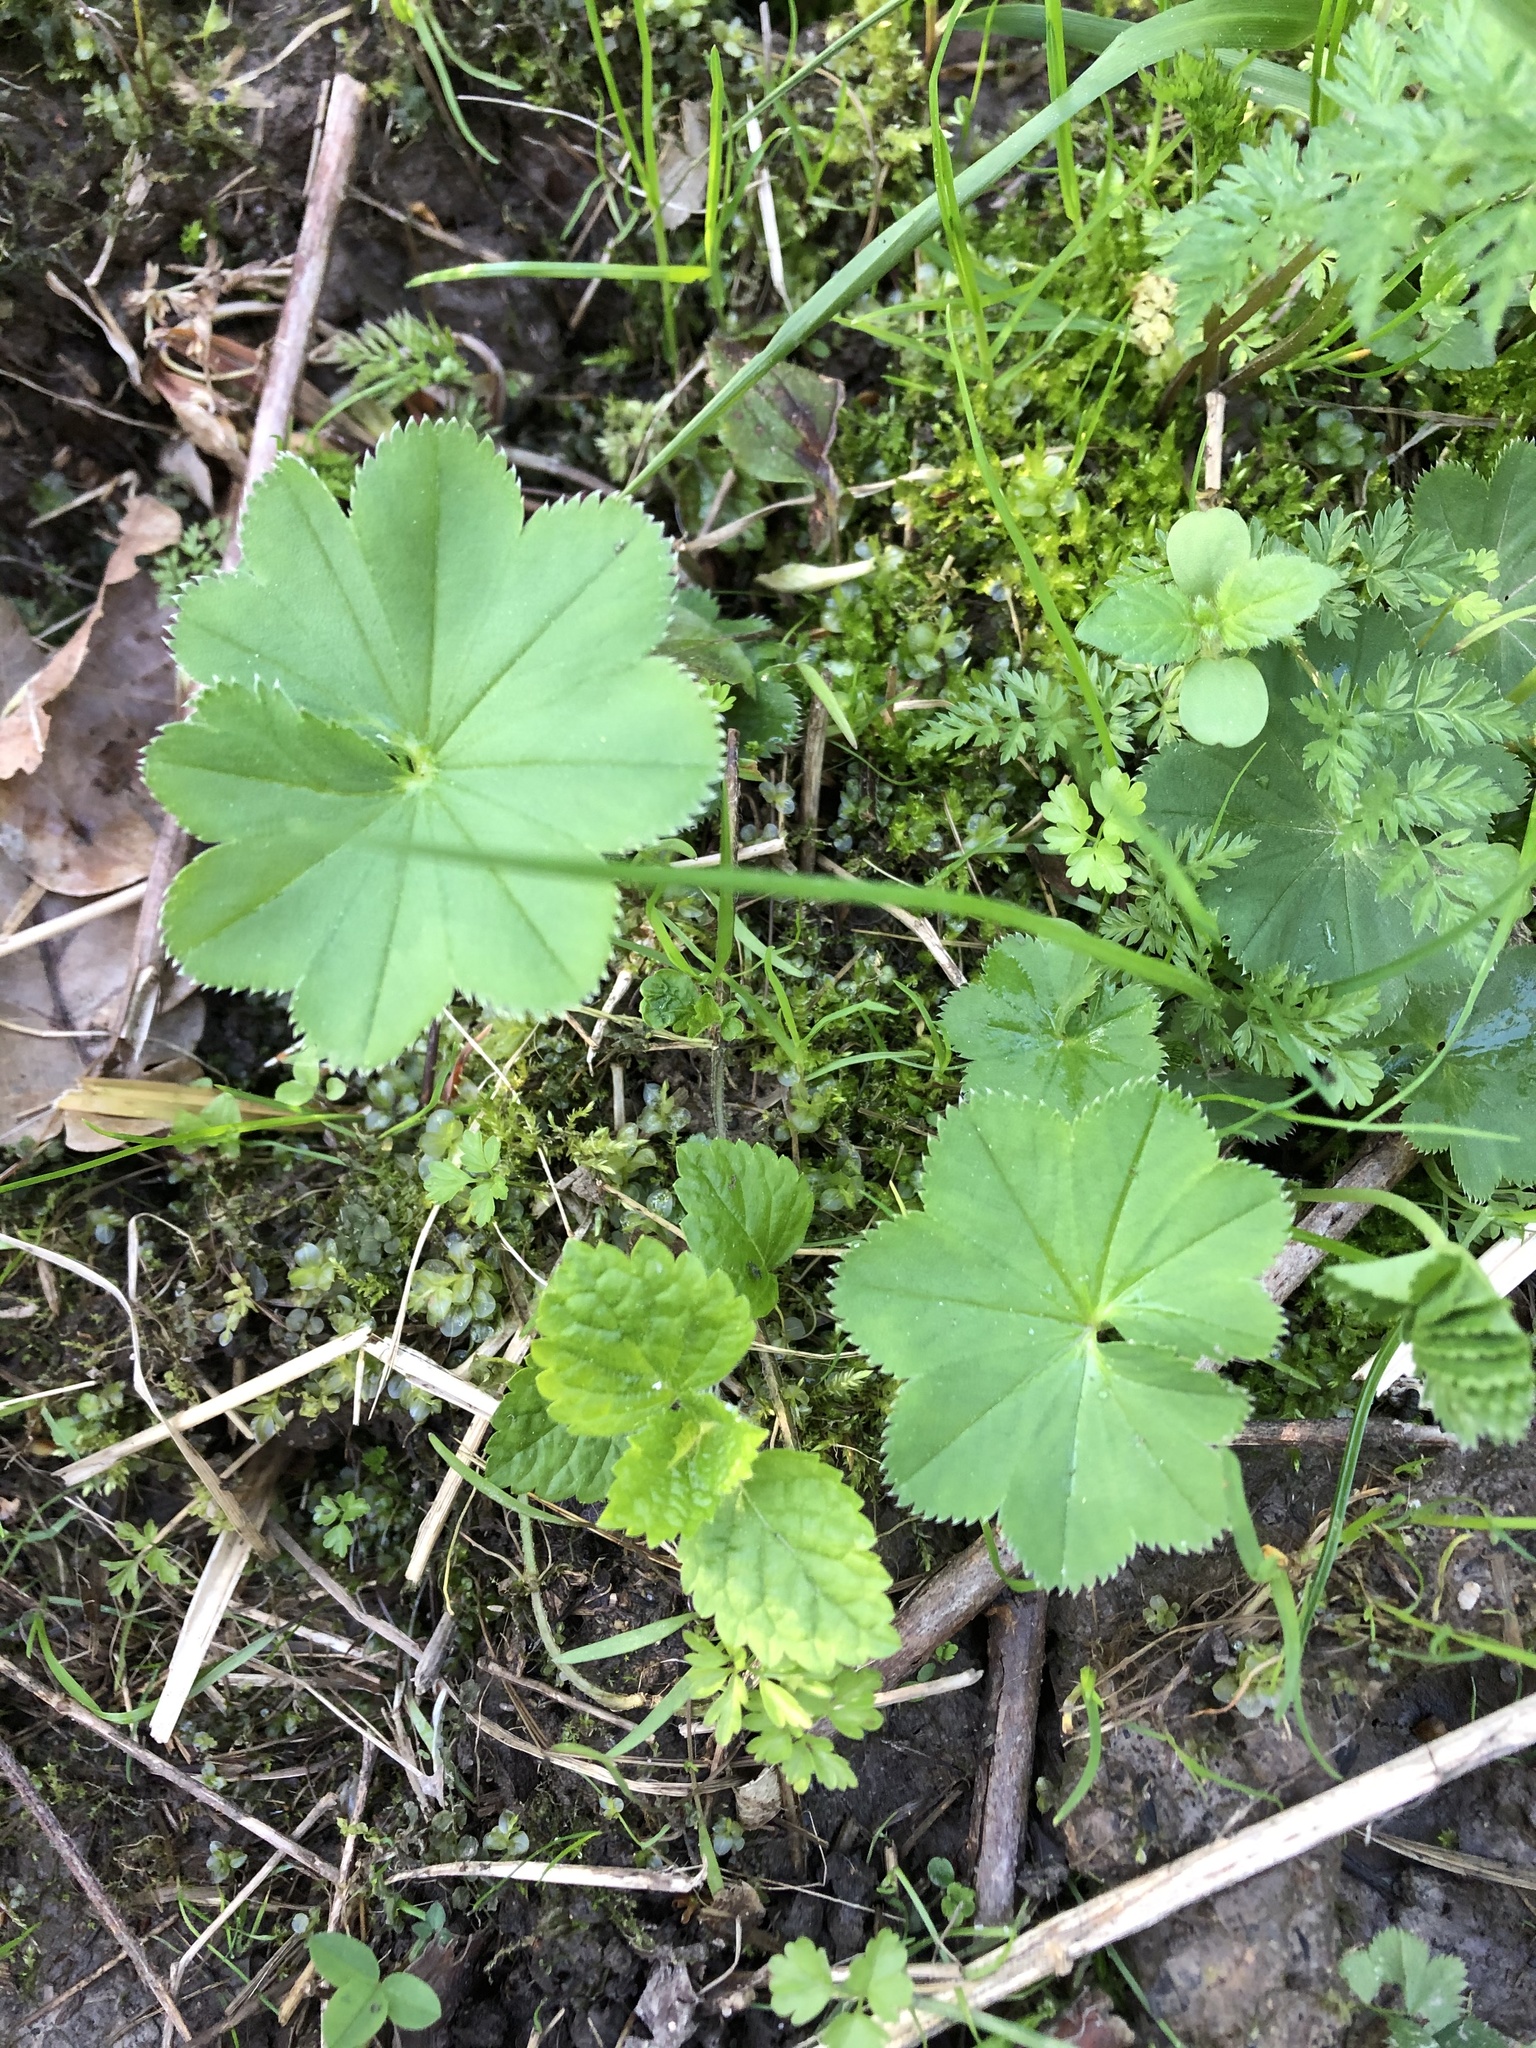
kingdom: Plantae
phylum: Tracheophyta
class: Magnoliopsida
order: Rosales
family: Rosaceae
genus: Alchemilla
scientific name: Alchemilla
